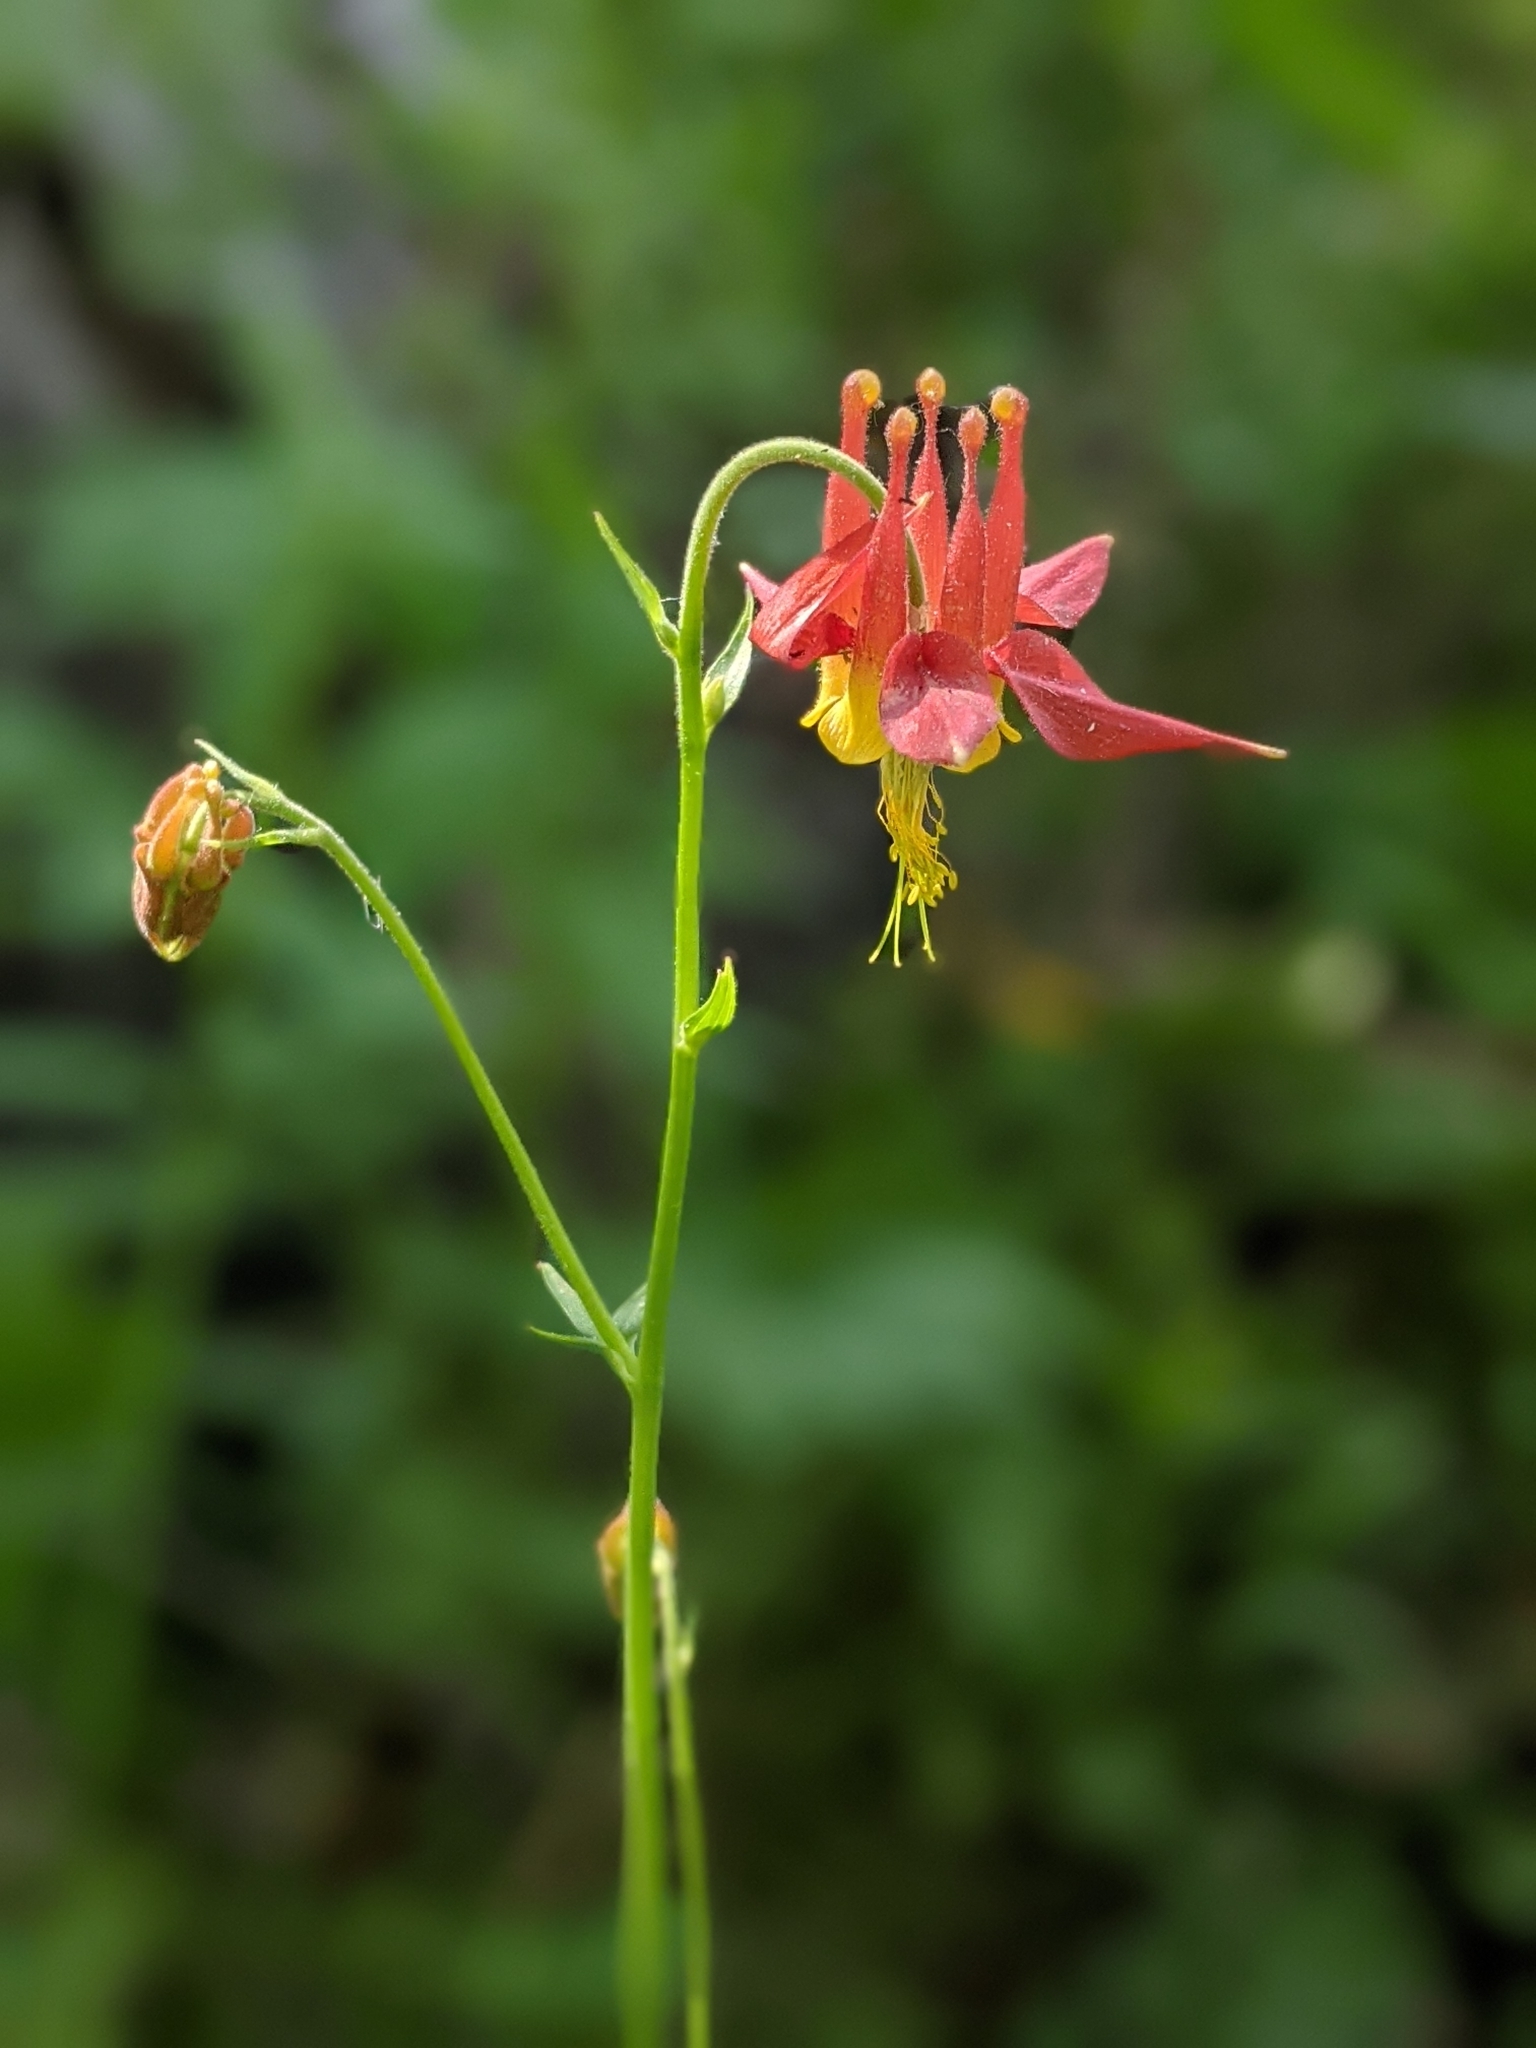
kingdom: Plantae
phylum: Tracheophyta
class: Magnoliopsida
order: Ranunculales
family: Ranunculaceae
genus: Aquilegia
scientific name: Aquilegia formosa
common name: Sitka columbine
